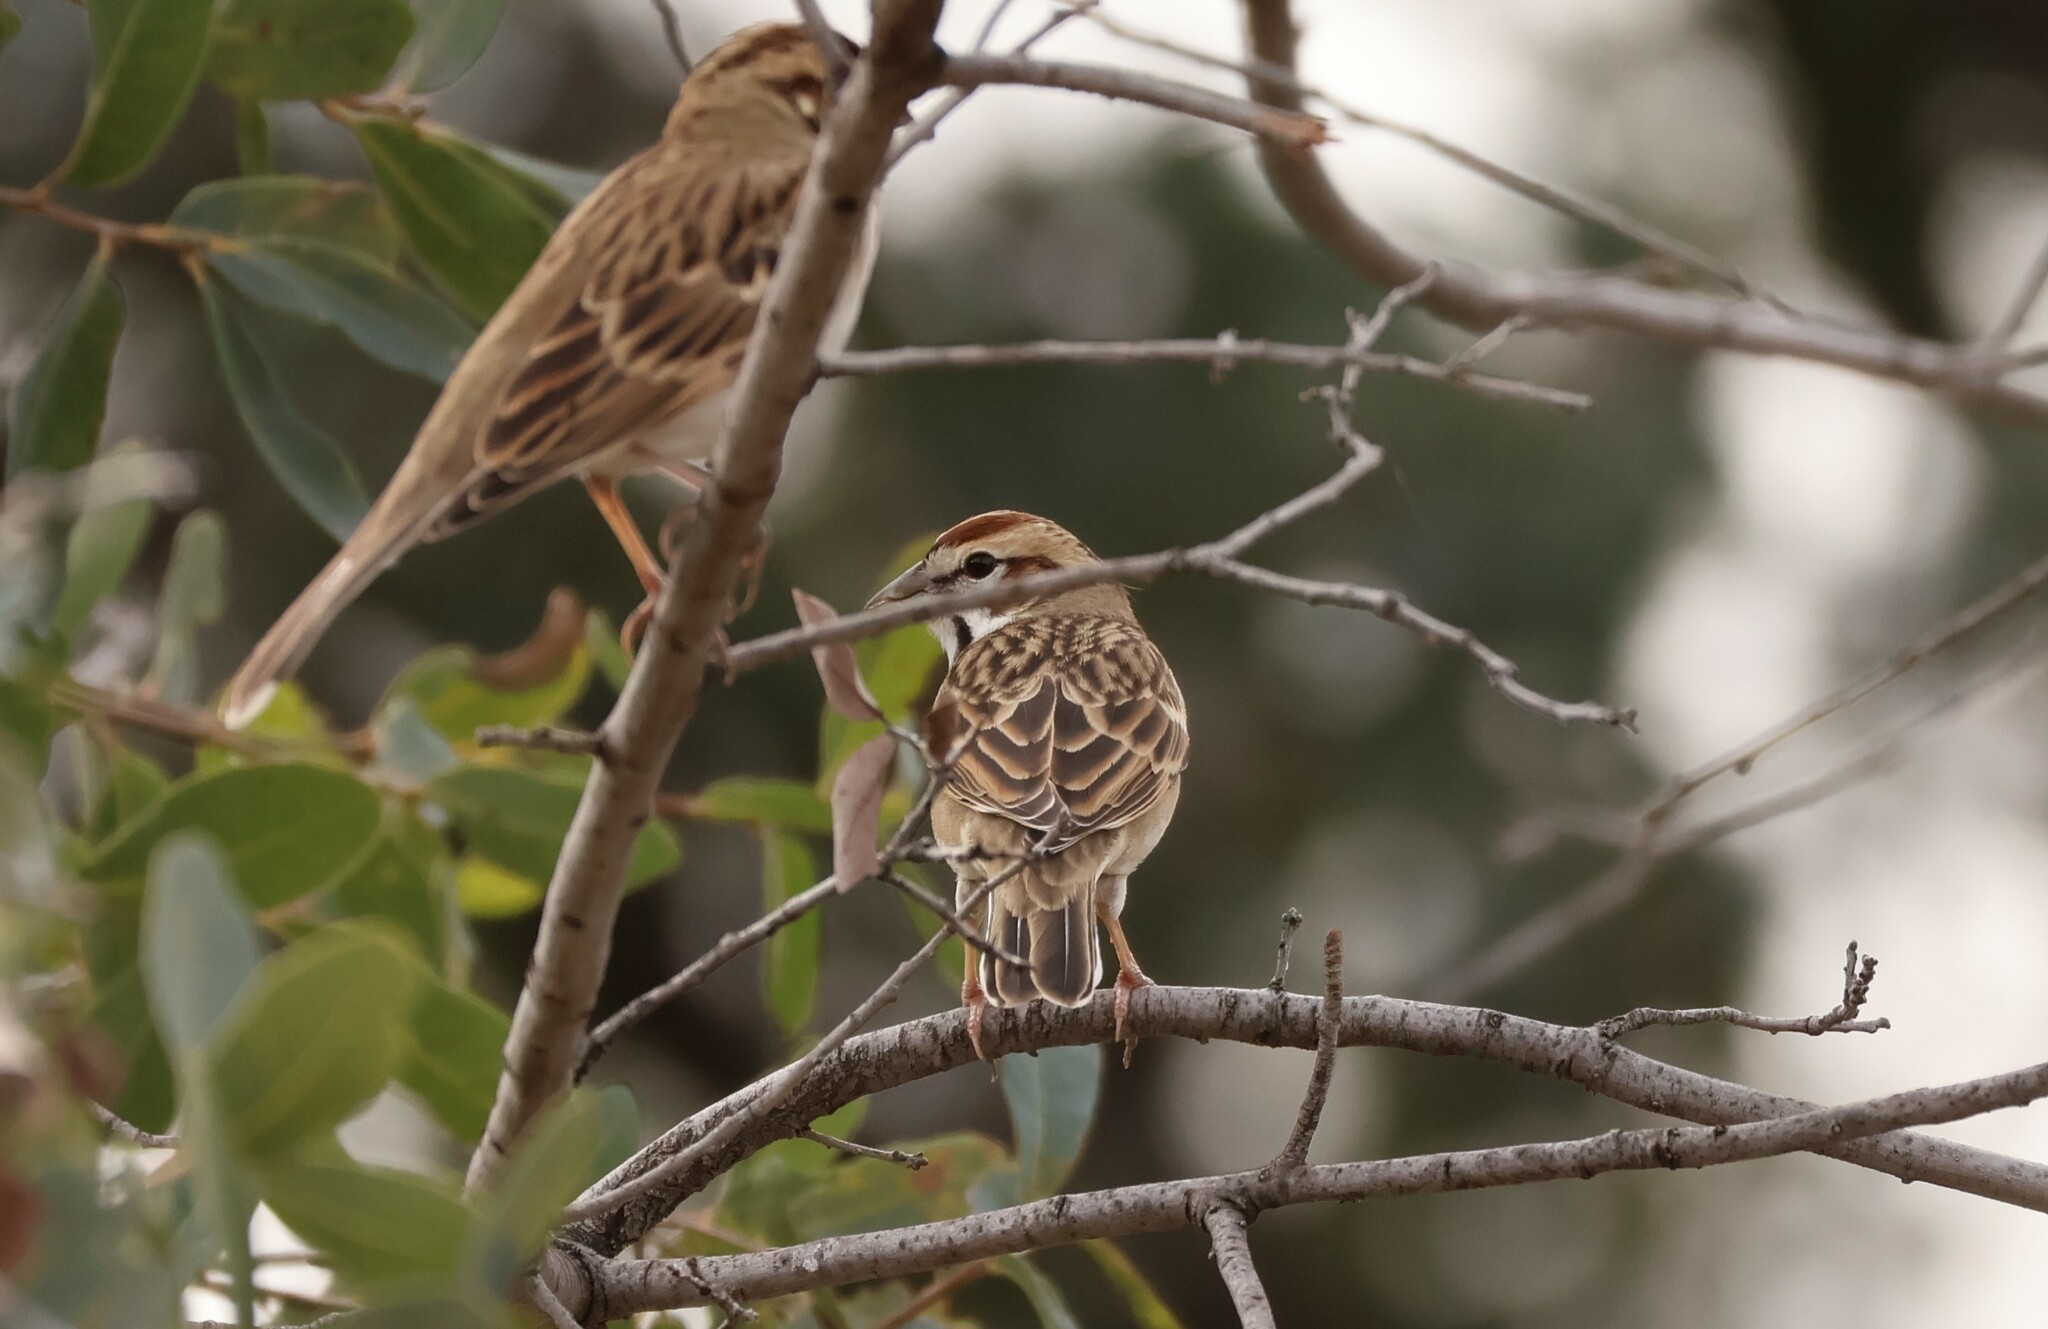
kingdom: Animalia
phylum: Chordata
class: Aves
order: Passeriformes
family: Passerellidae
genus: Chondestes
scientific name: Chondestes grammacus
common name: Lark sparrow
